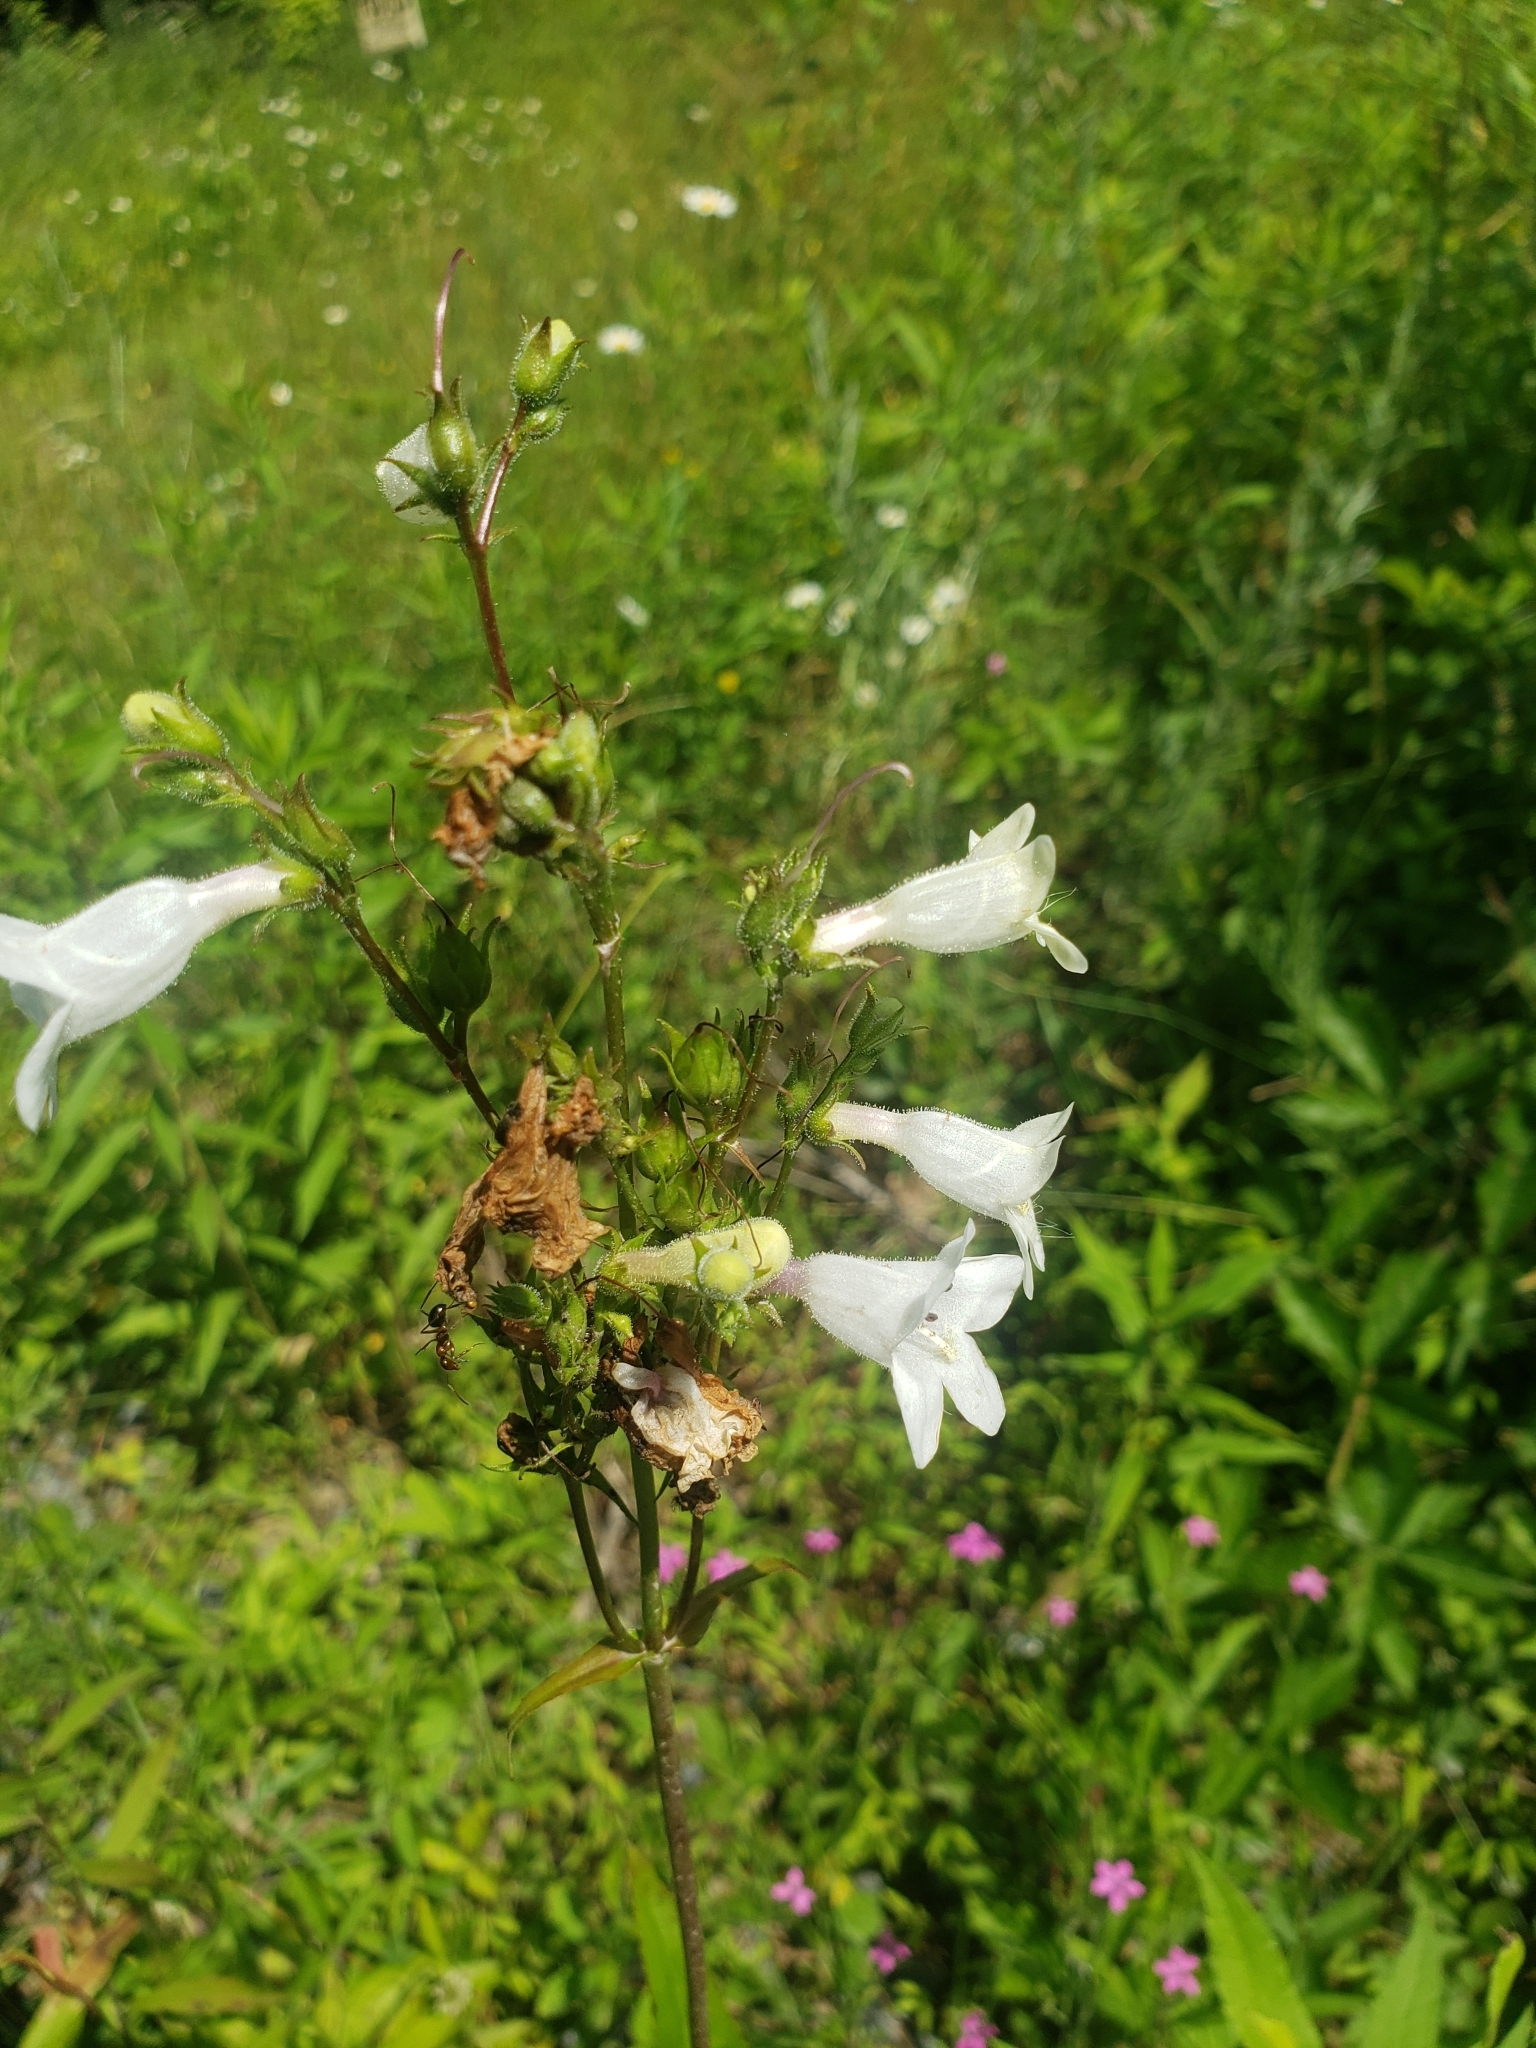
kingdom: Plantae
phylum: Tracheophyta
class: Magnoliopsida
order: Lamiales
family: Plantaginaceae
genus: Penstemon
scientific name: Penstemon digitalis
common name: Foxglove beardtongue
